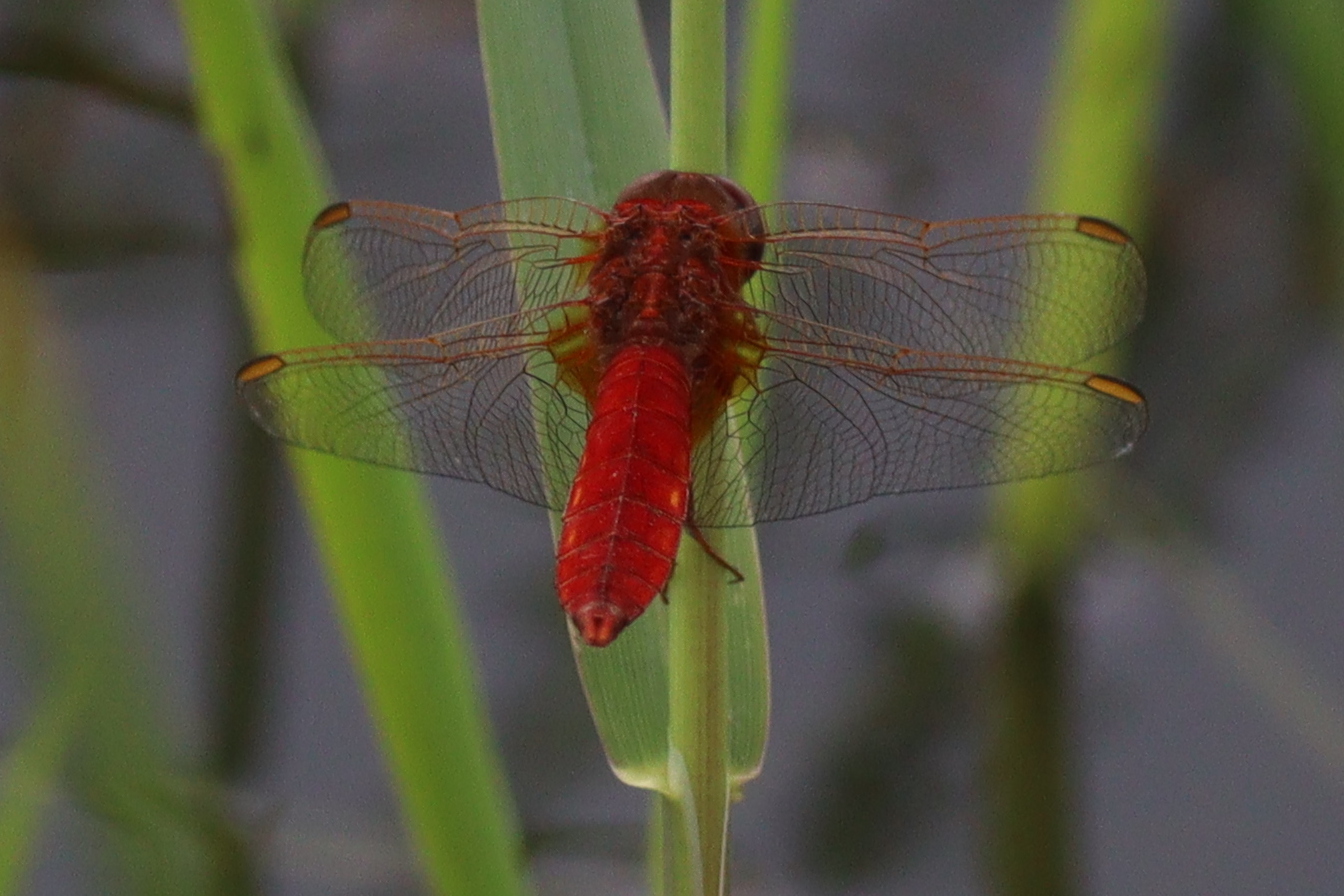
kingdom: Animalia
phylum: Arthropoda
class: Insecta
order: Odonata
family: Libellulidae
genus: Crocothemis
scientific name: Crocothemis erythraea
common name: Scarlet dragonfly
